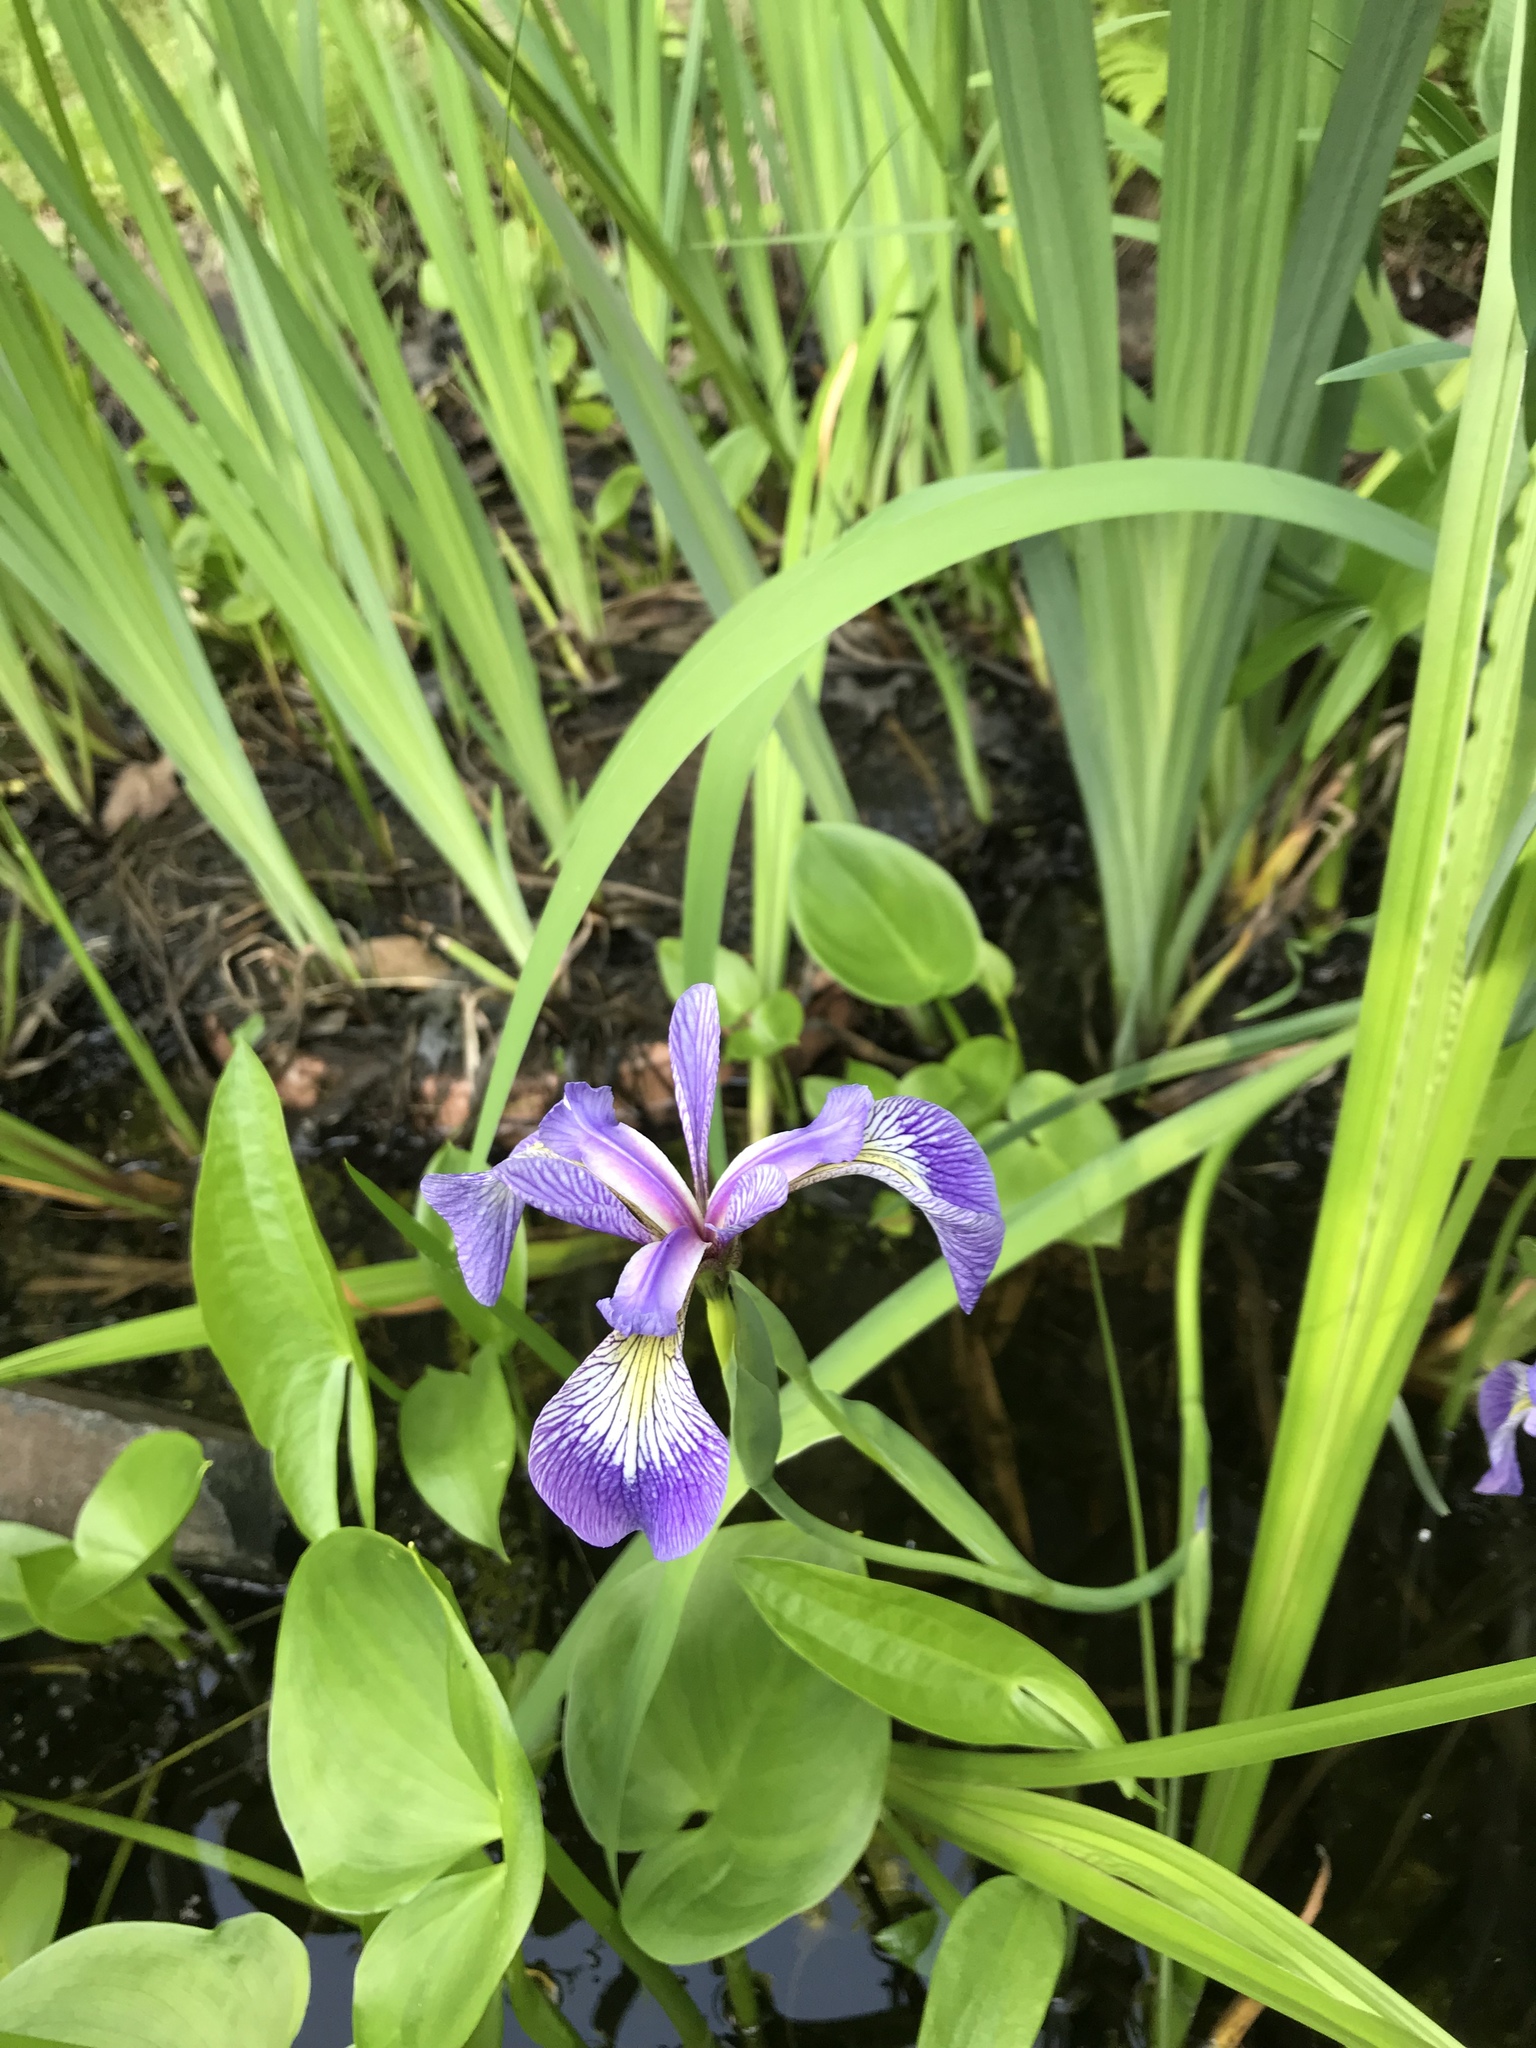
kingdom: Plantae
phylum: Tracheophyta
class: Liliopsida
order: Asparagales
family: Iridaceae
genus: Iris
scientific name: Iris versicolor
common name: Purple iris
